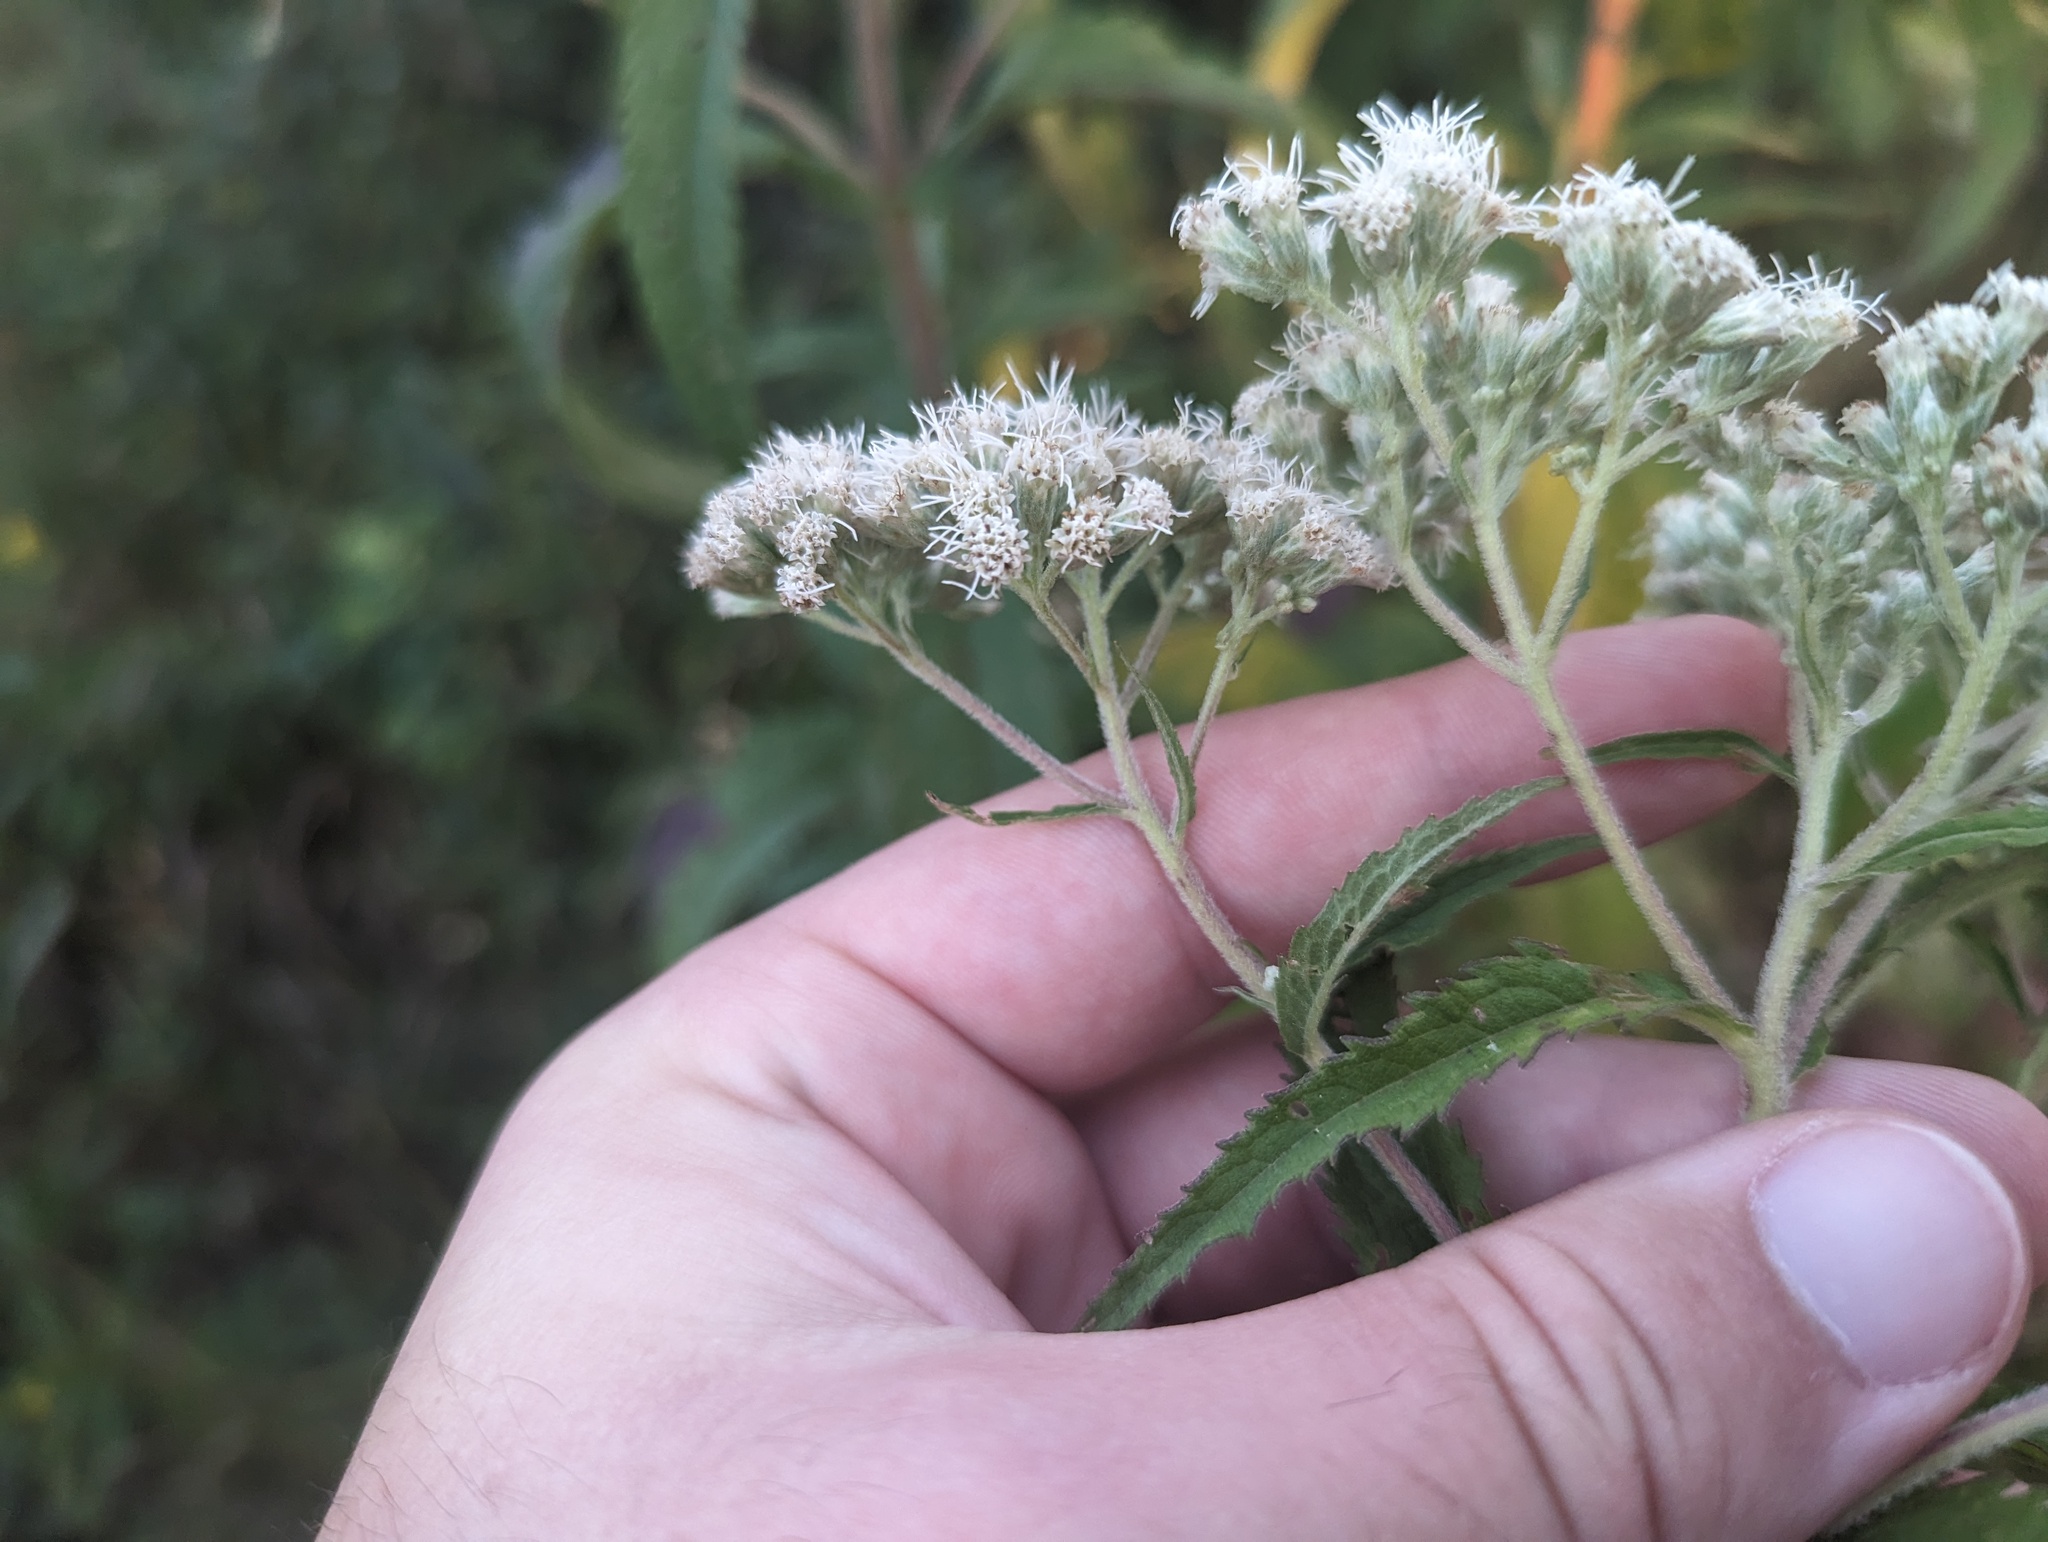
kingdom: Plantae
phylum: Tracheophyta
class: Magnoliopsida
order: Asterales
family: Asteraceae
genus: Eupatorium
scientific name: Eupatorium truncatum
